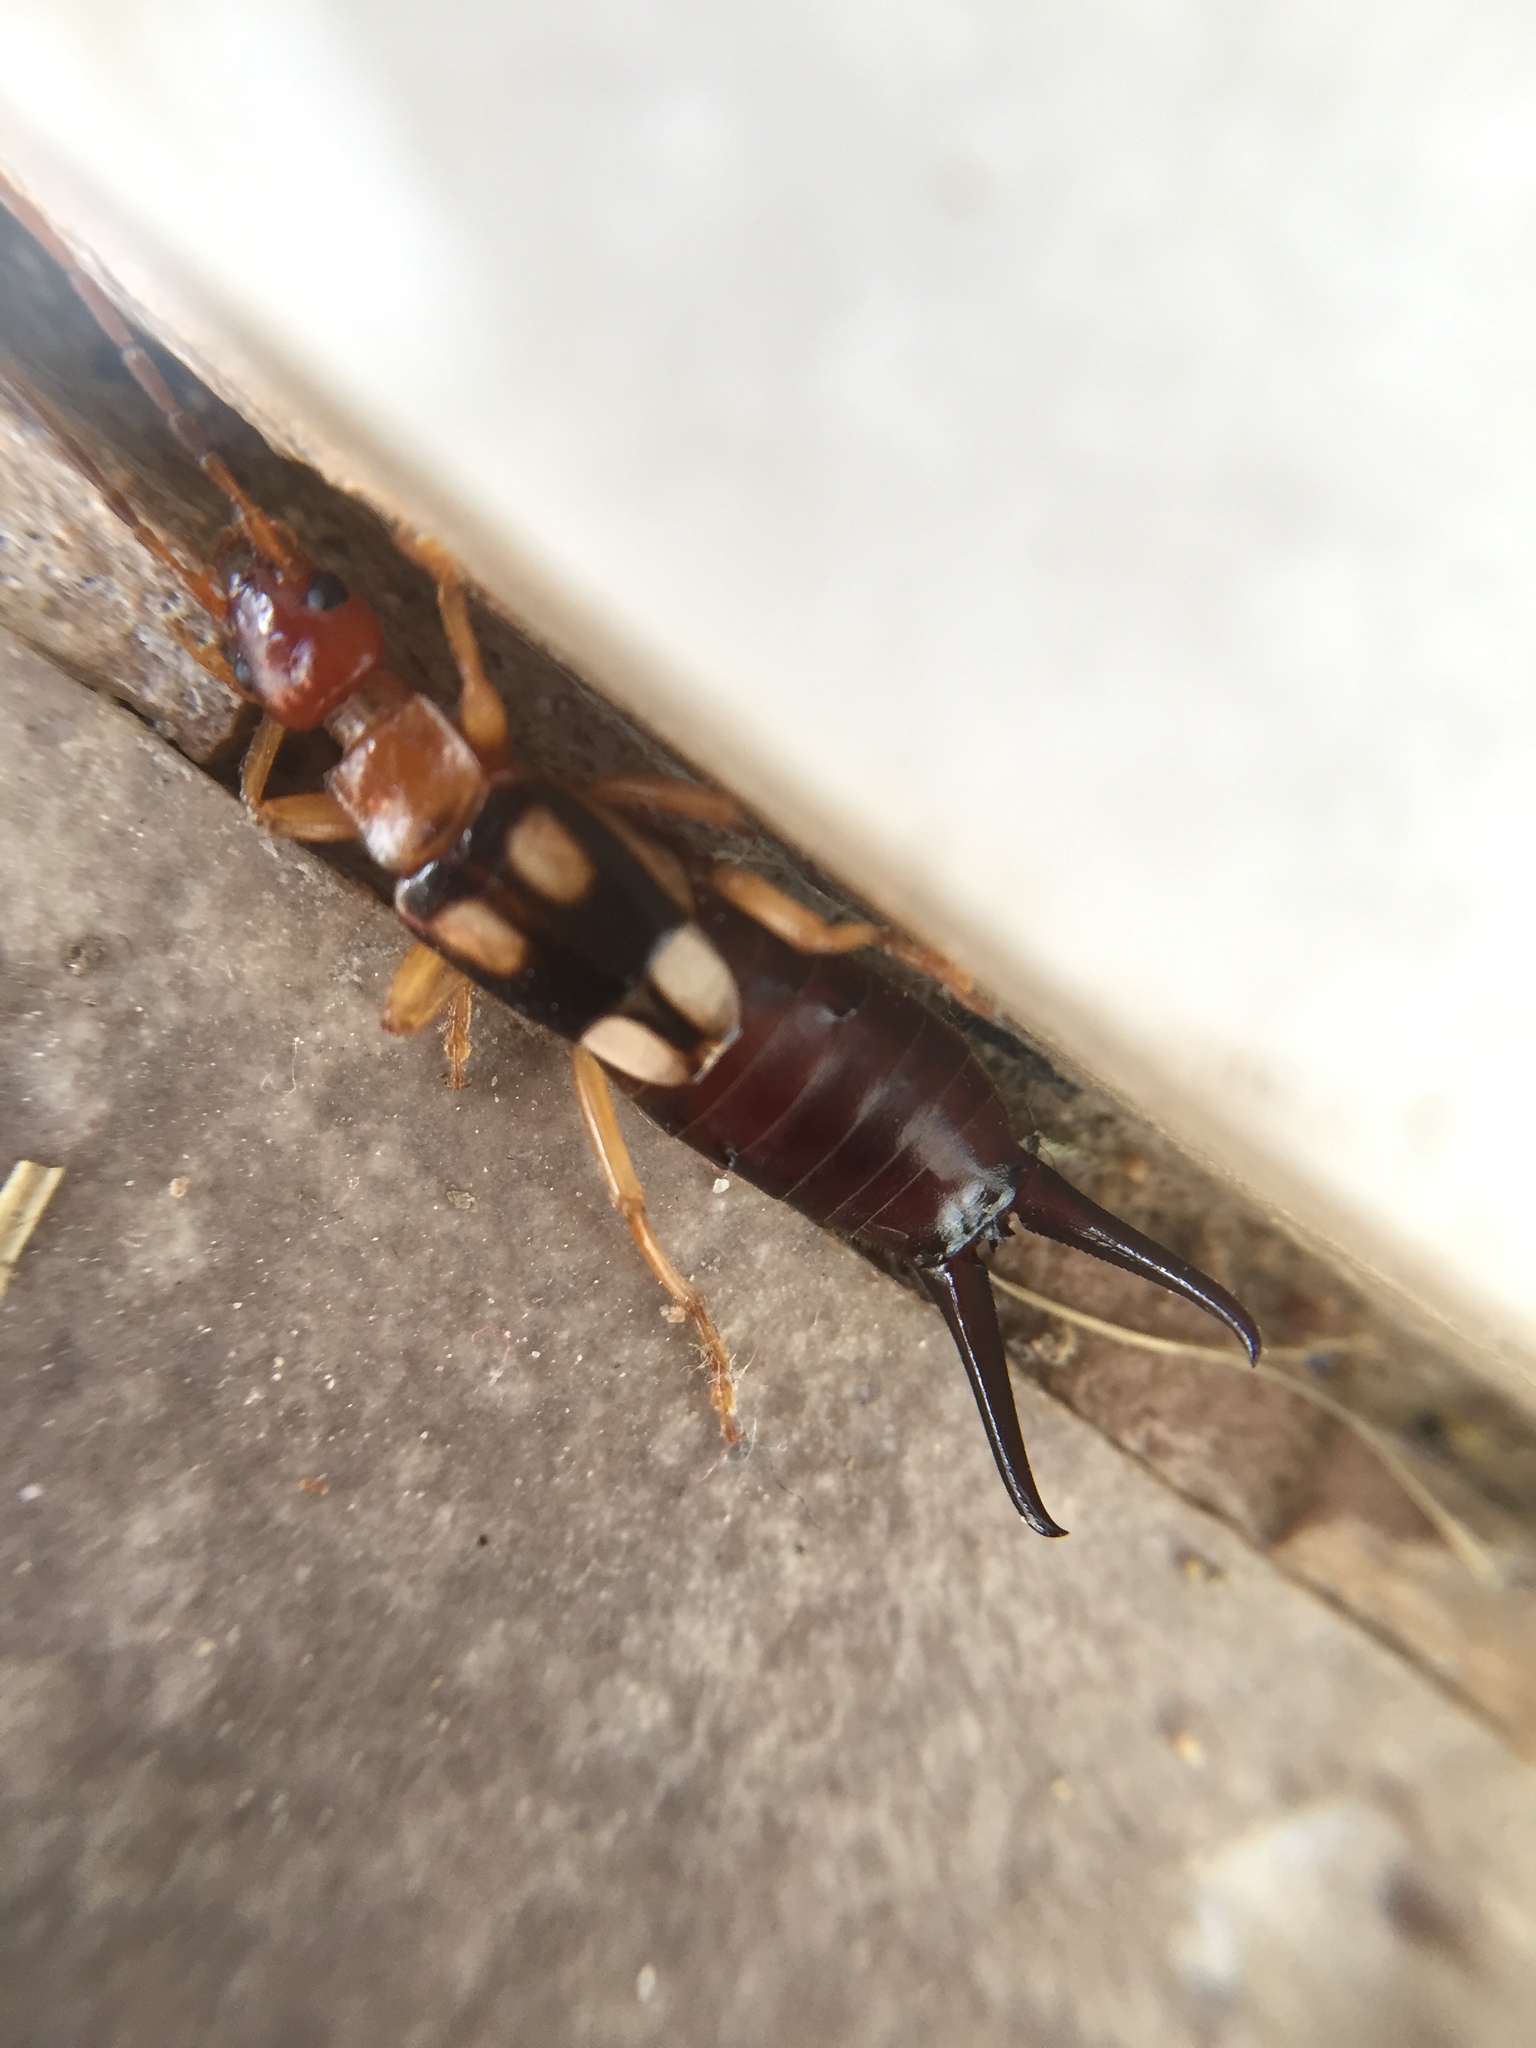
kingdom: Animalia
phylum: Arthropoda
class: Insecta
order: Dermaptera
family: Forficulidae
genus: Forficula
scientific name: Forficula smyrnensis
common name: Smyrna earwig
